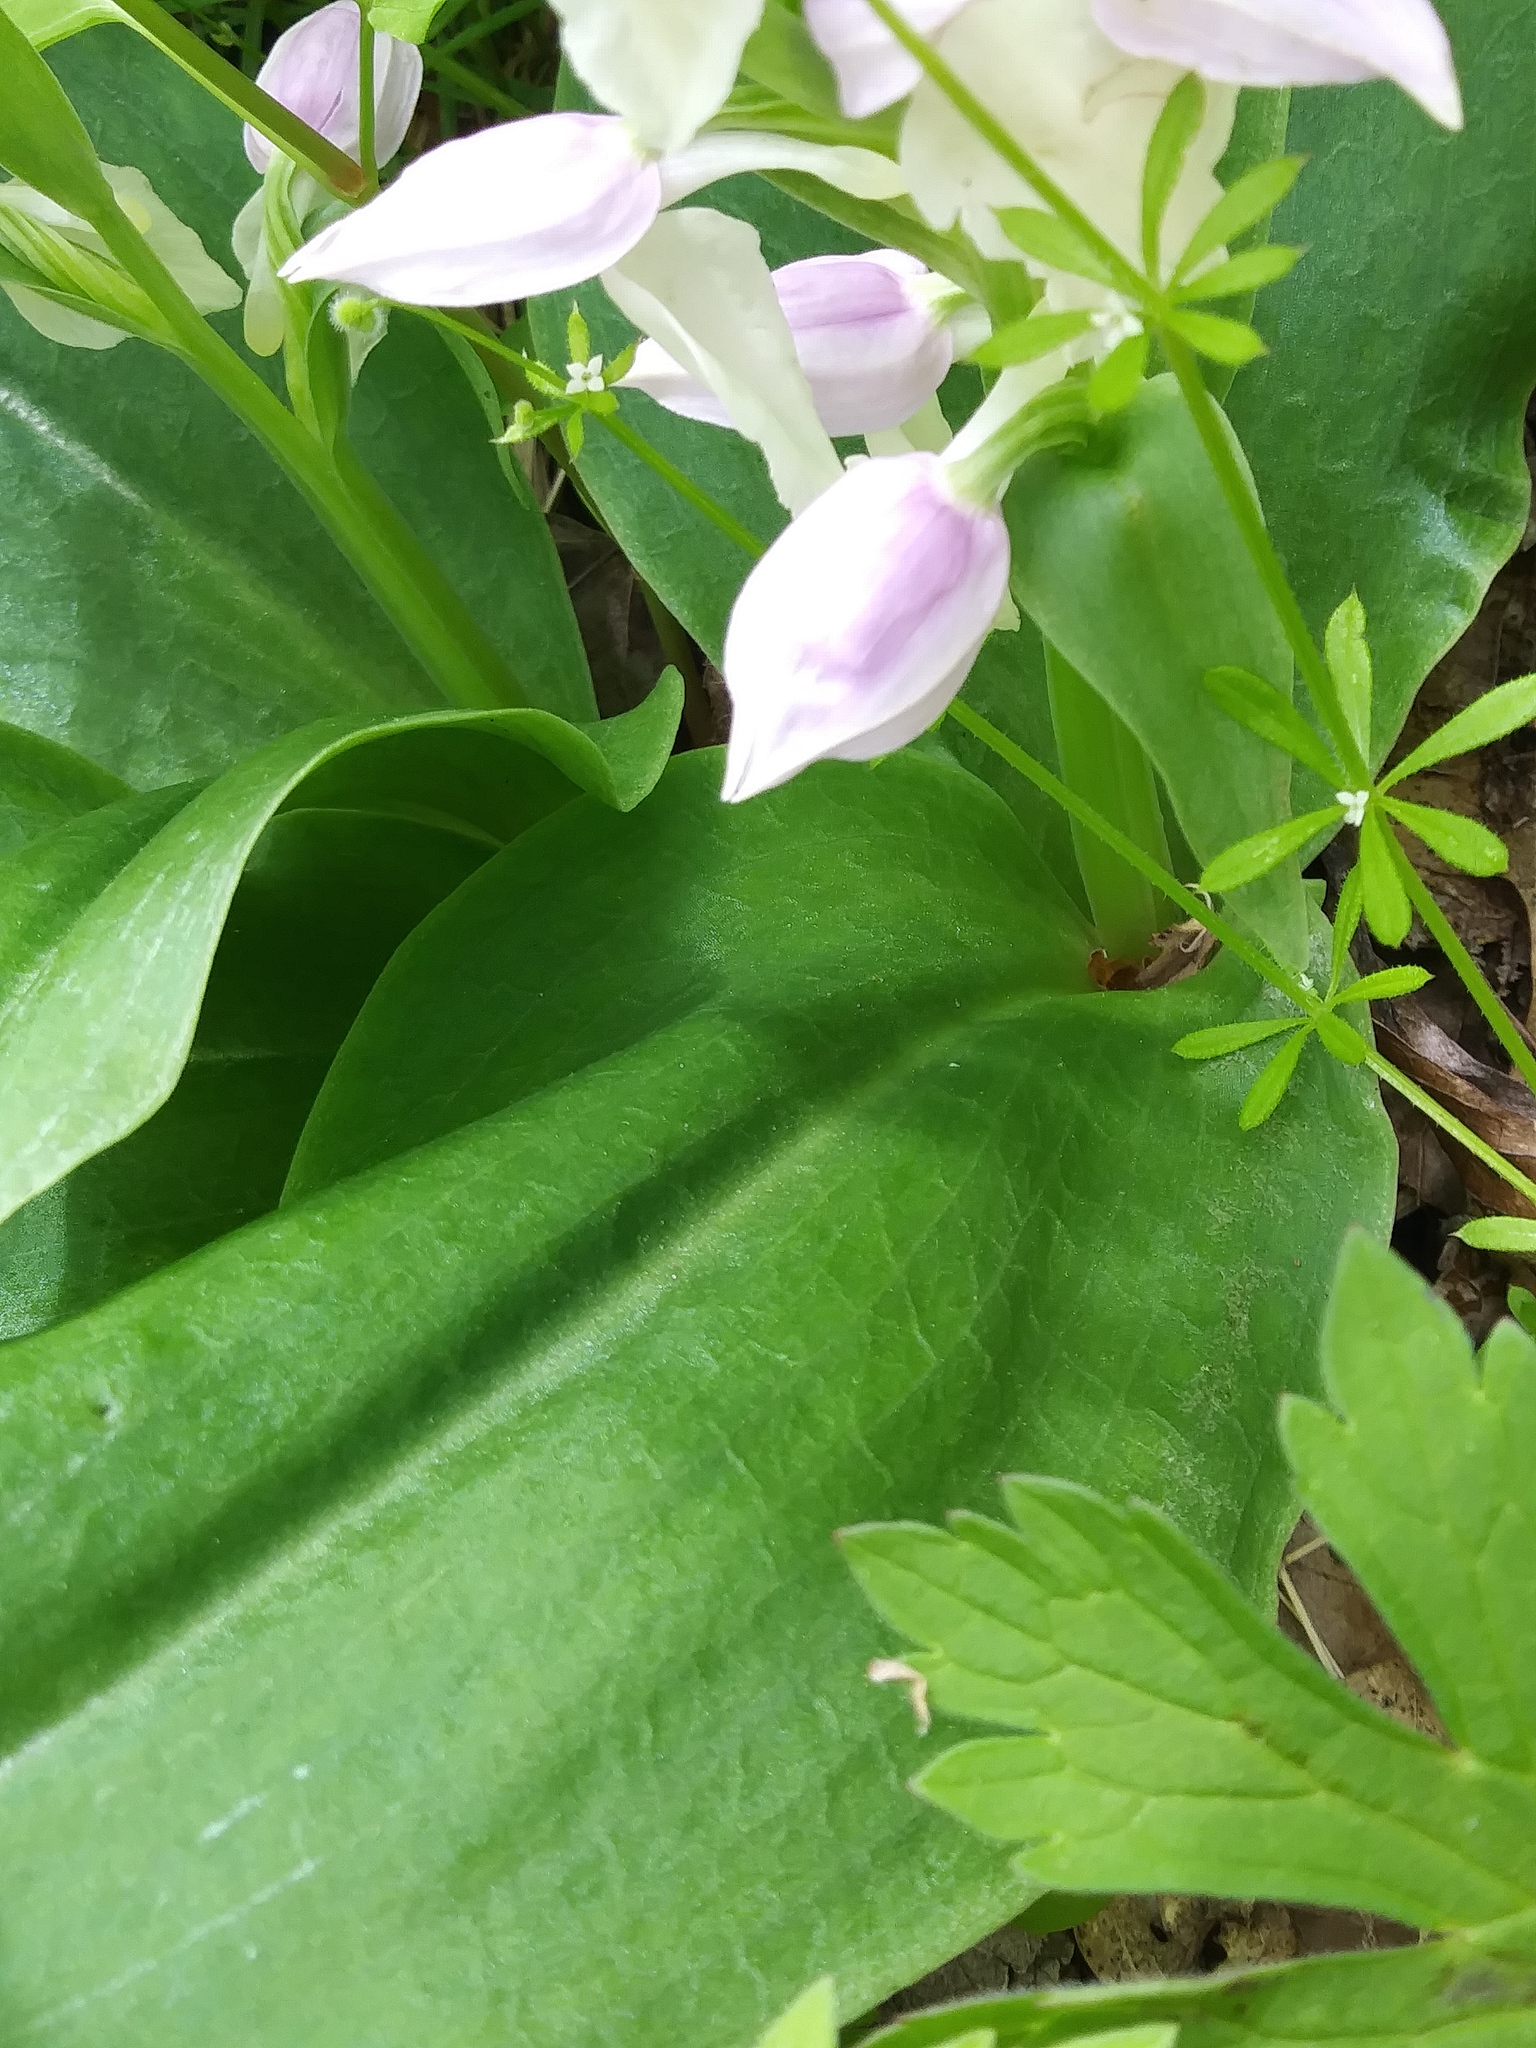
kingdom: Plantae
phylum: Tracheophyta
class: Liliopsida
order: Asparagales
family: Orchidaceae
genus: Galearis
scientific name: Galearis spectabilis
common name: Purple-hooded orchis
